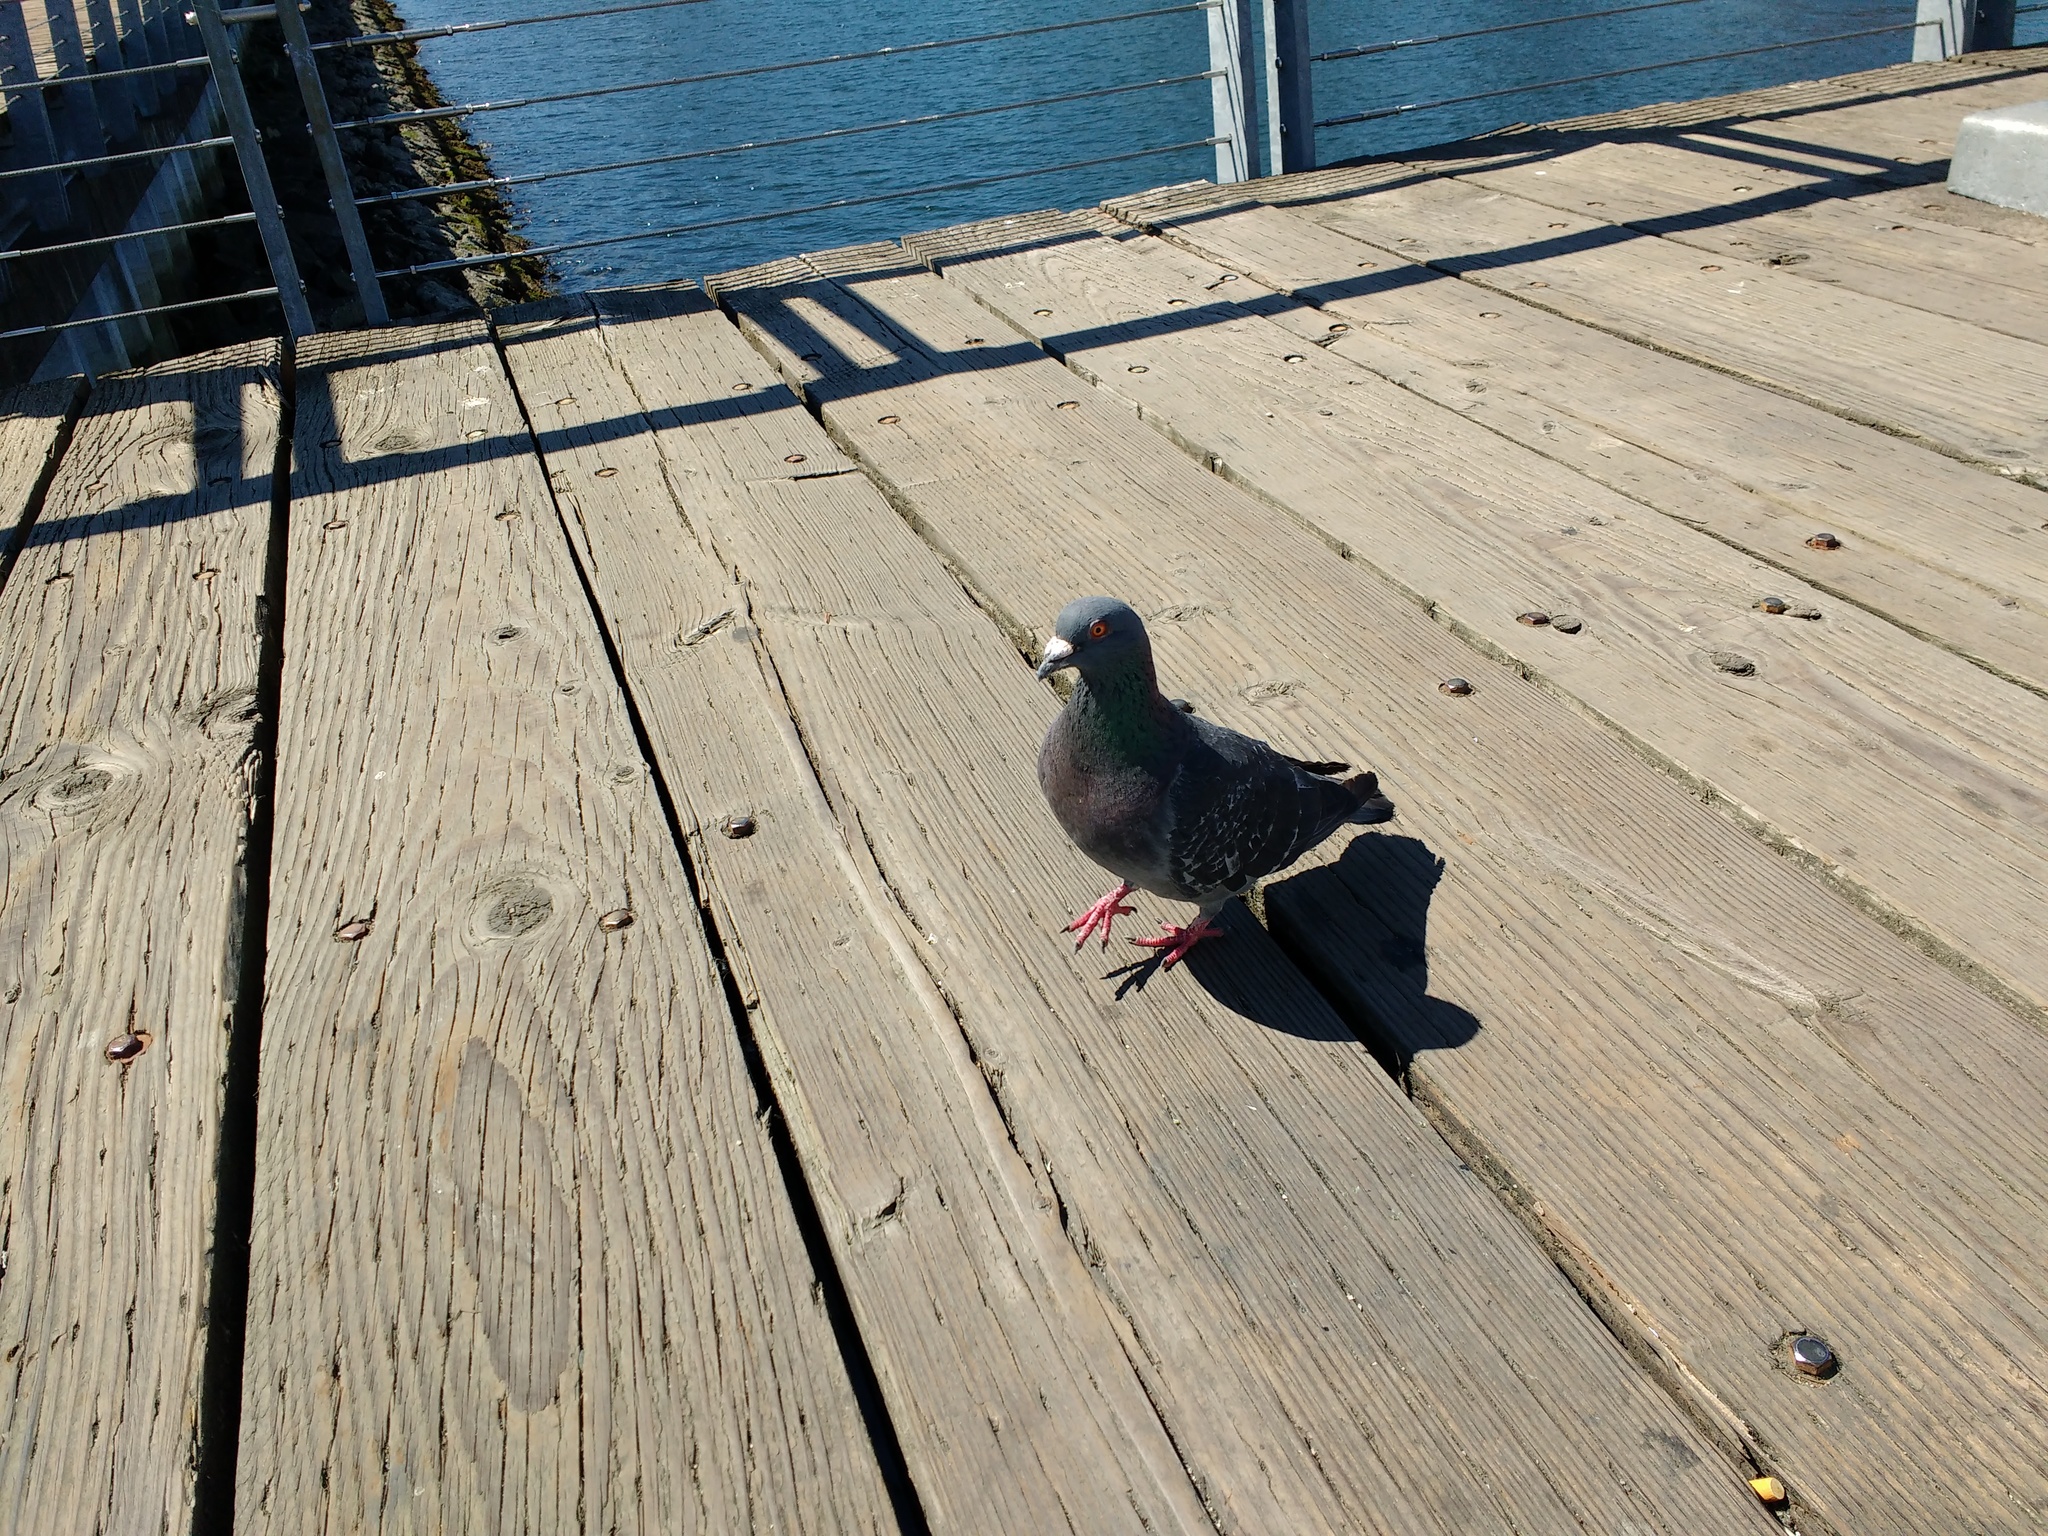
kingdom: Animalia
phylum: Chordata
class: Aves
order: Columbiformes
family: Columbidae
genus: Columba
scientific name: Columba livia
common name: Rock pigeon
